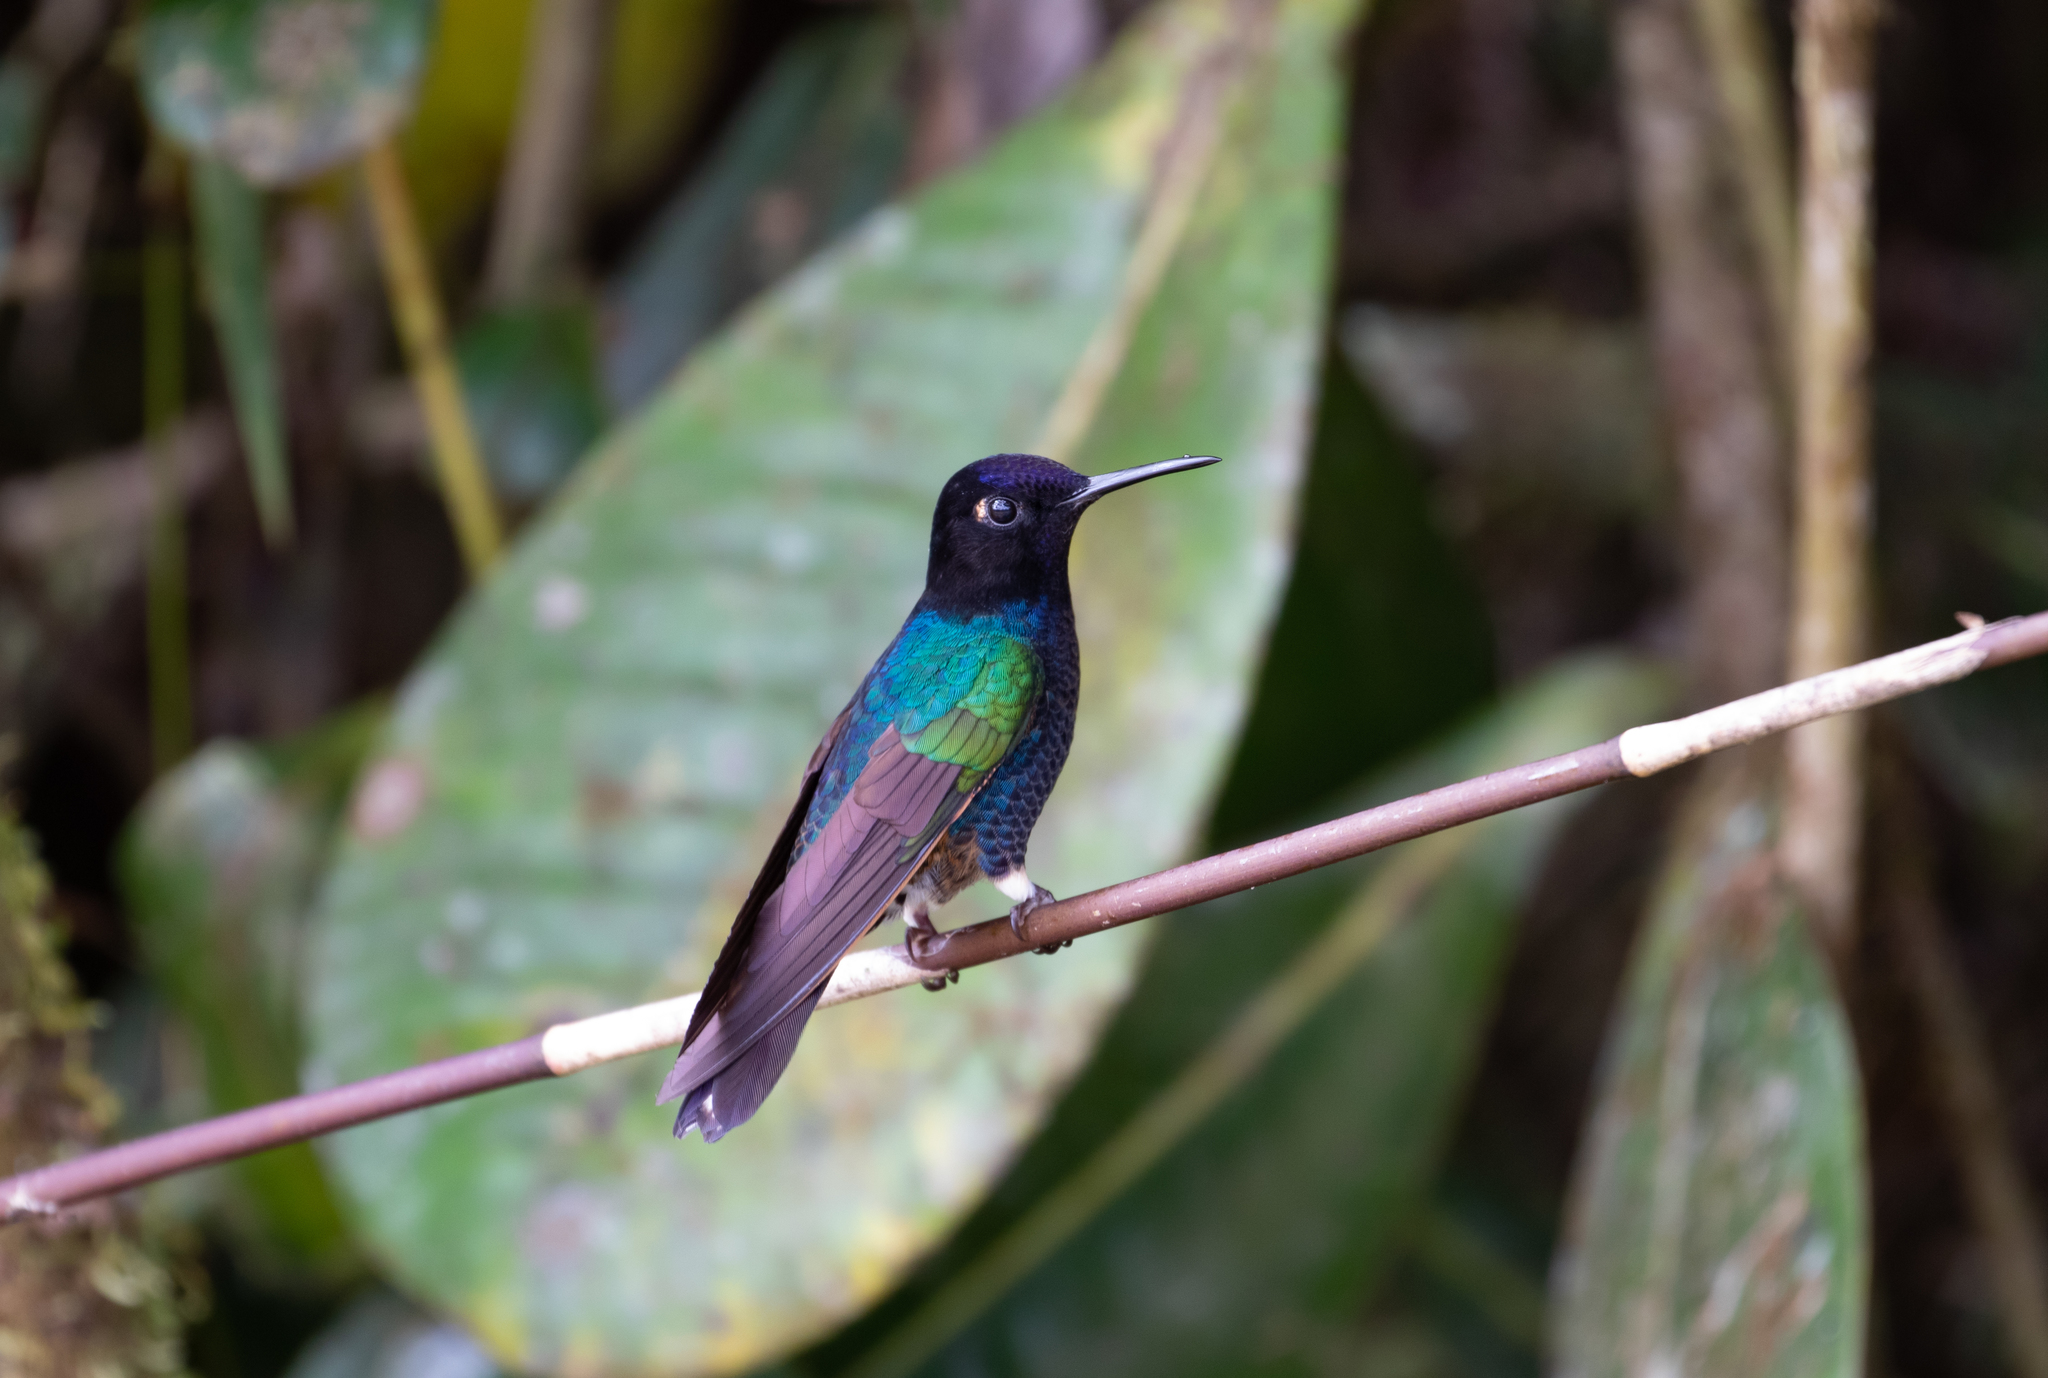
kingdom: Animalia
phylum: Chordata
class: Aves
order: Apodiformes
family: Trochilidae
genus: Boissonneaua
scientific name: Boissonneaua jardini
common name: Velvet-purple coronet
